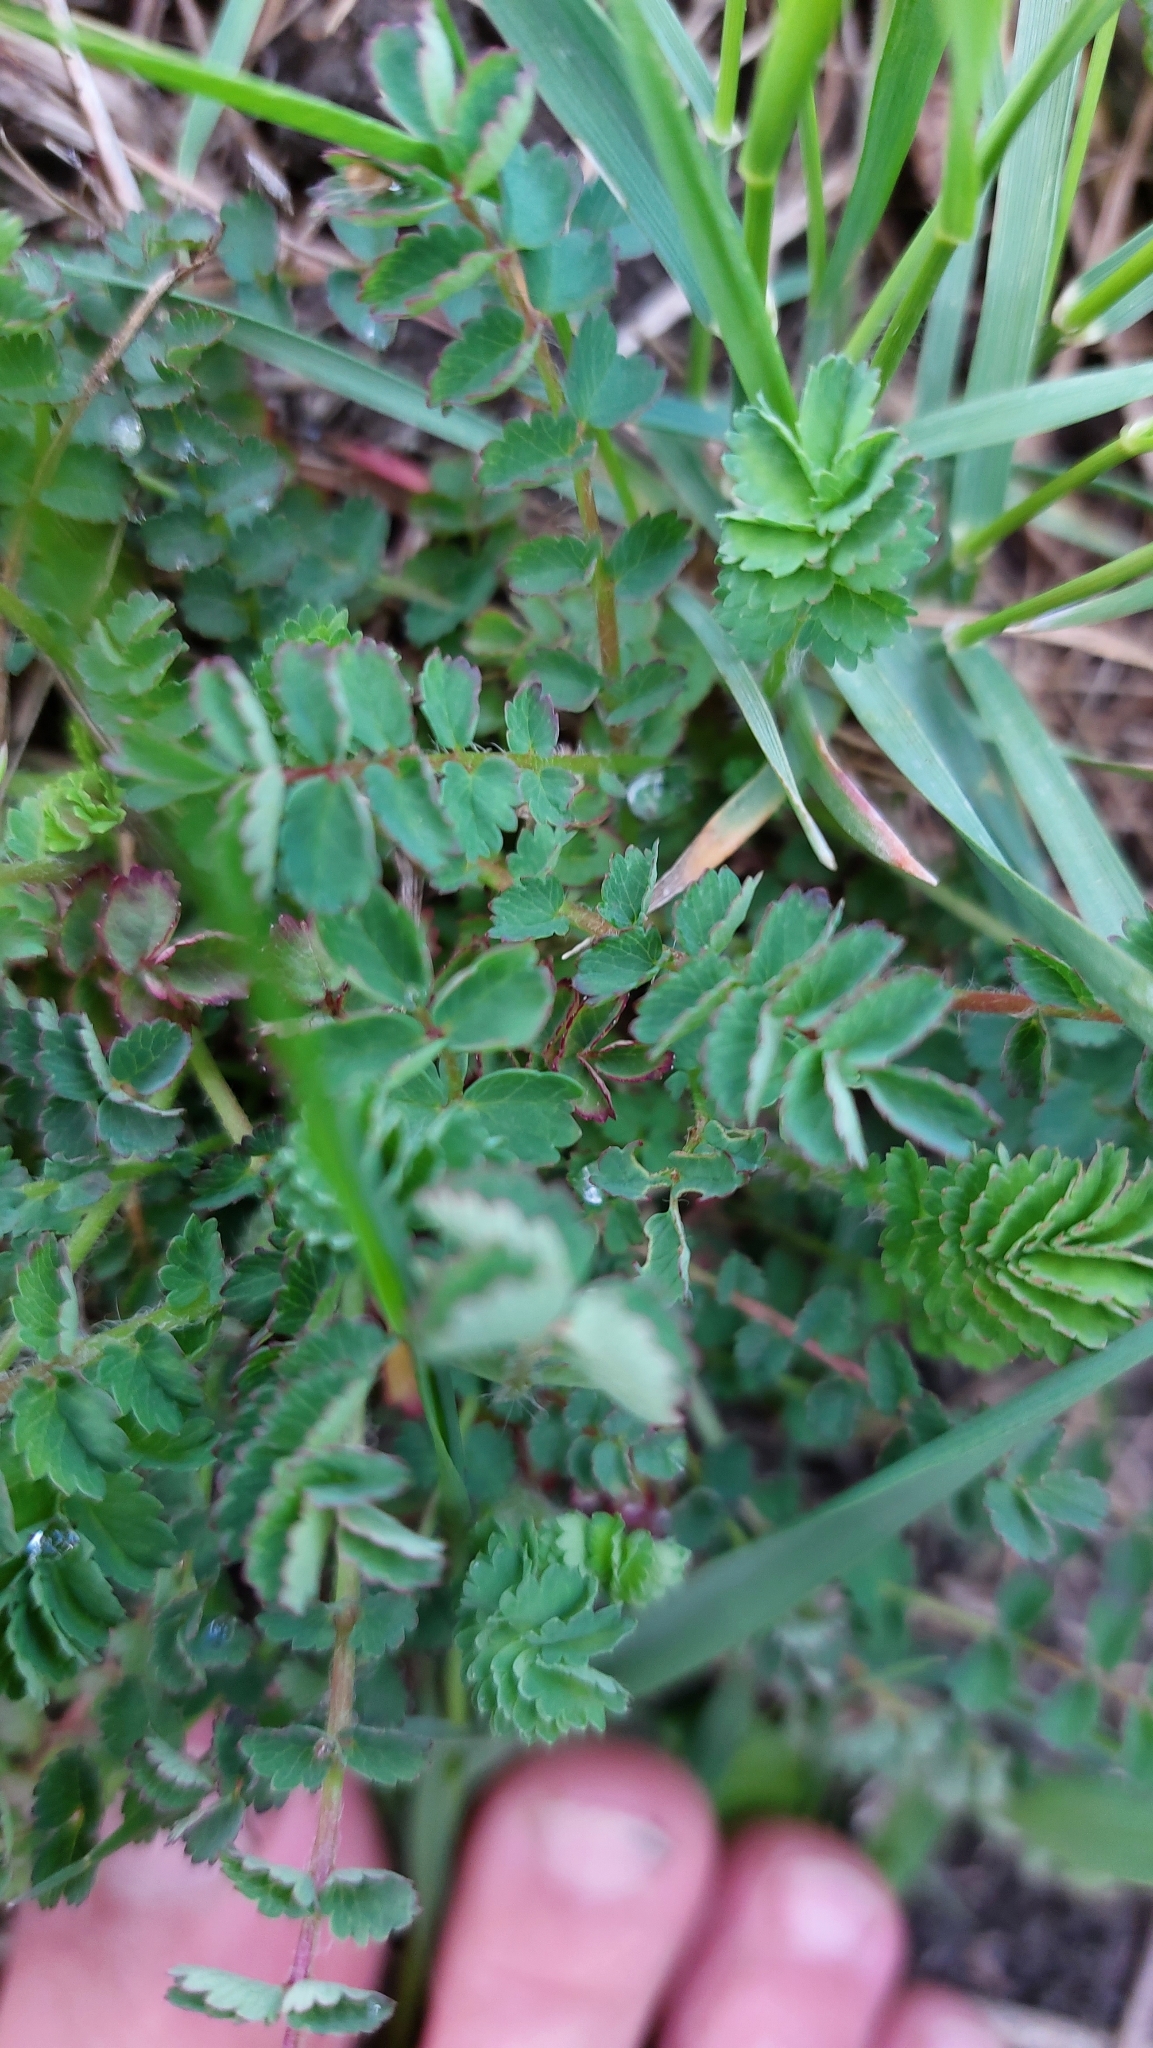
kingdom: Plantae
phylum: Tracheophyta
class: Magnoliopsida
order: Rosales
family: Rosaceae
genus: Poterium
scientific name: Poterium sanguisorba
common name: Salad burnet
